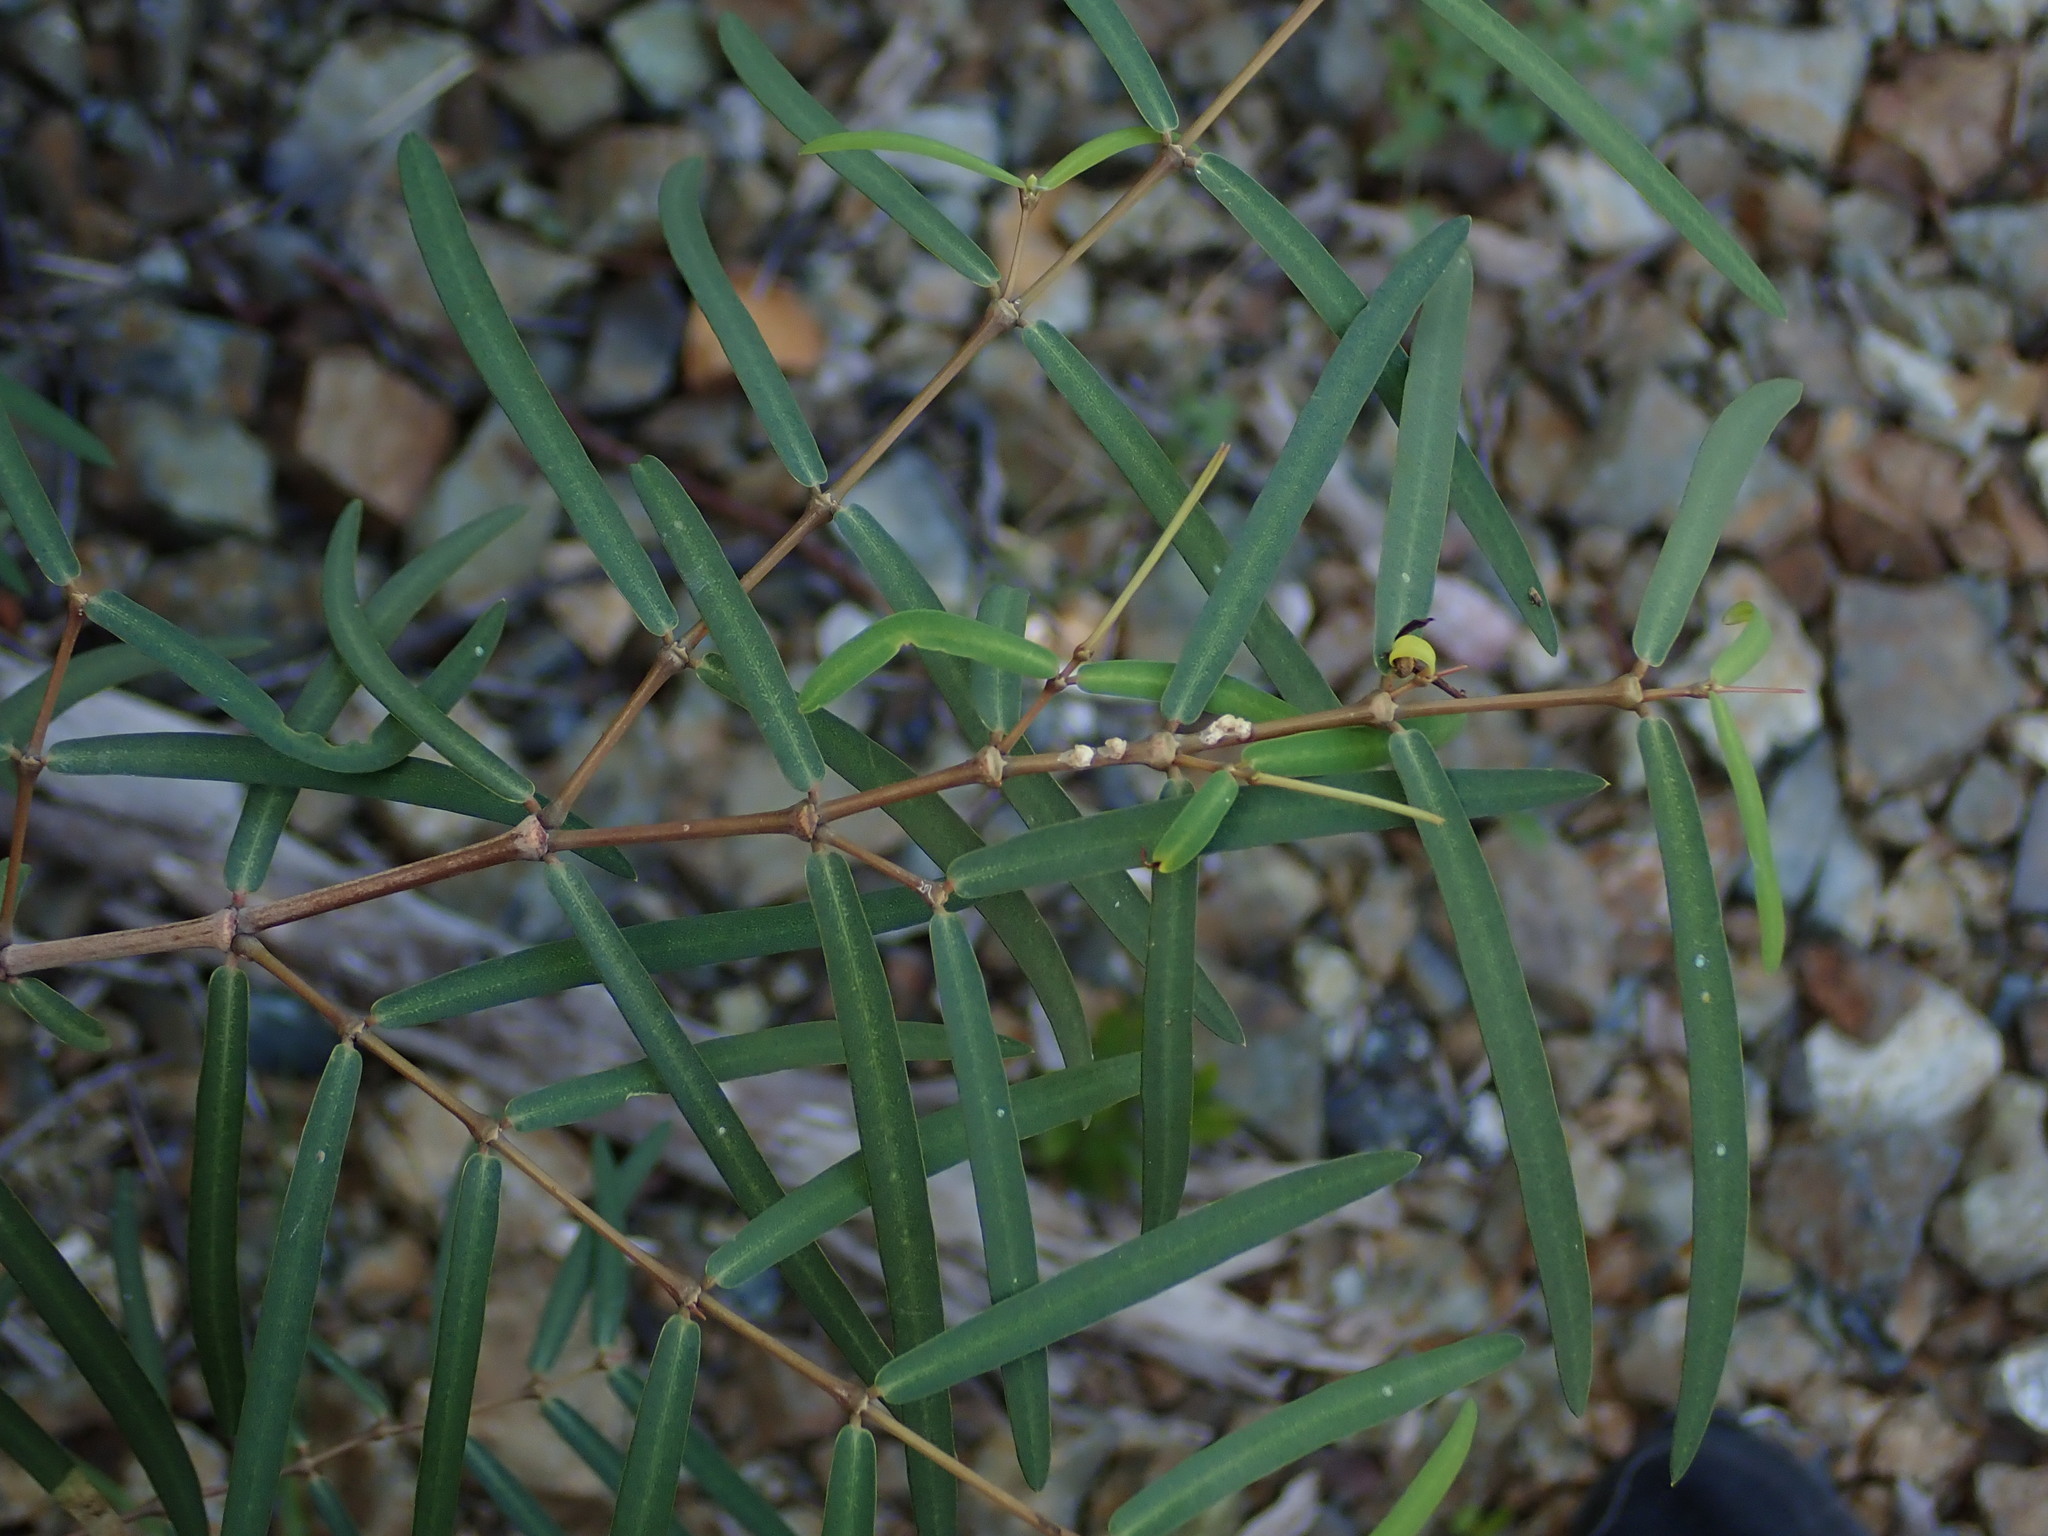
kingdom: Plantae
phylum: Tracheophyta
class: Magnoliopsida
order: Malpighiales
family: Euphorbiaceae
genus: Euphorbia
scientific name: Euphorbia articulata
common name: Jointed sandmat
